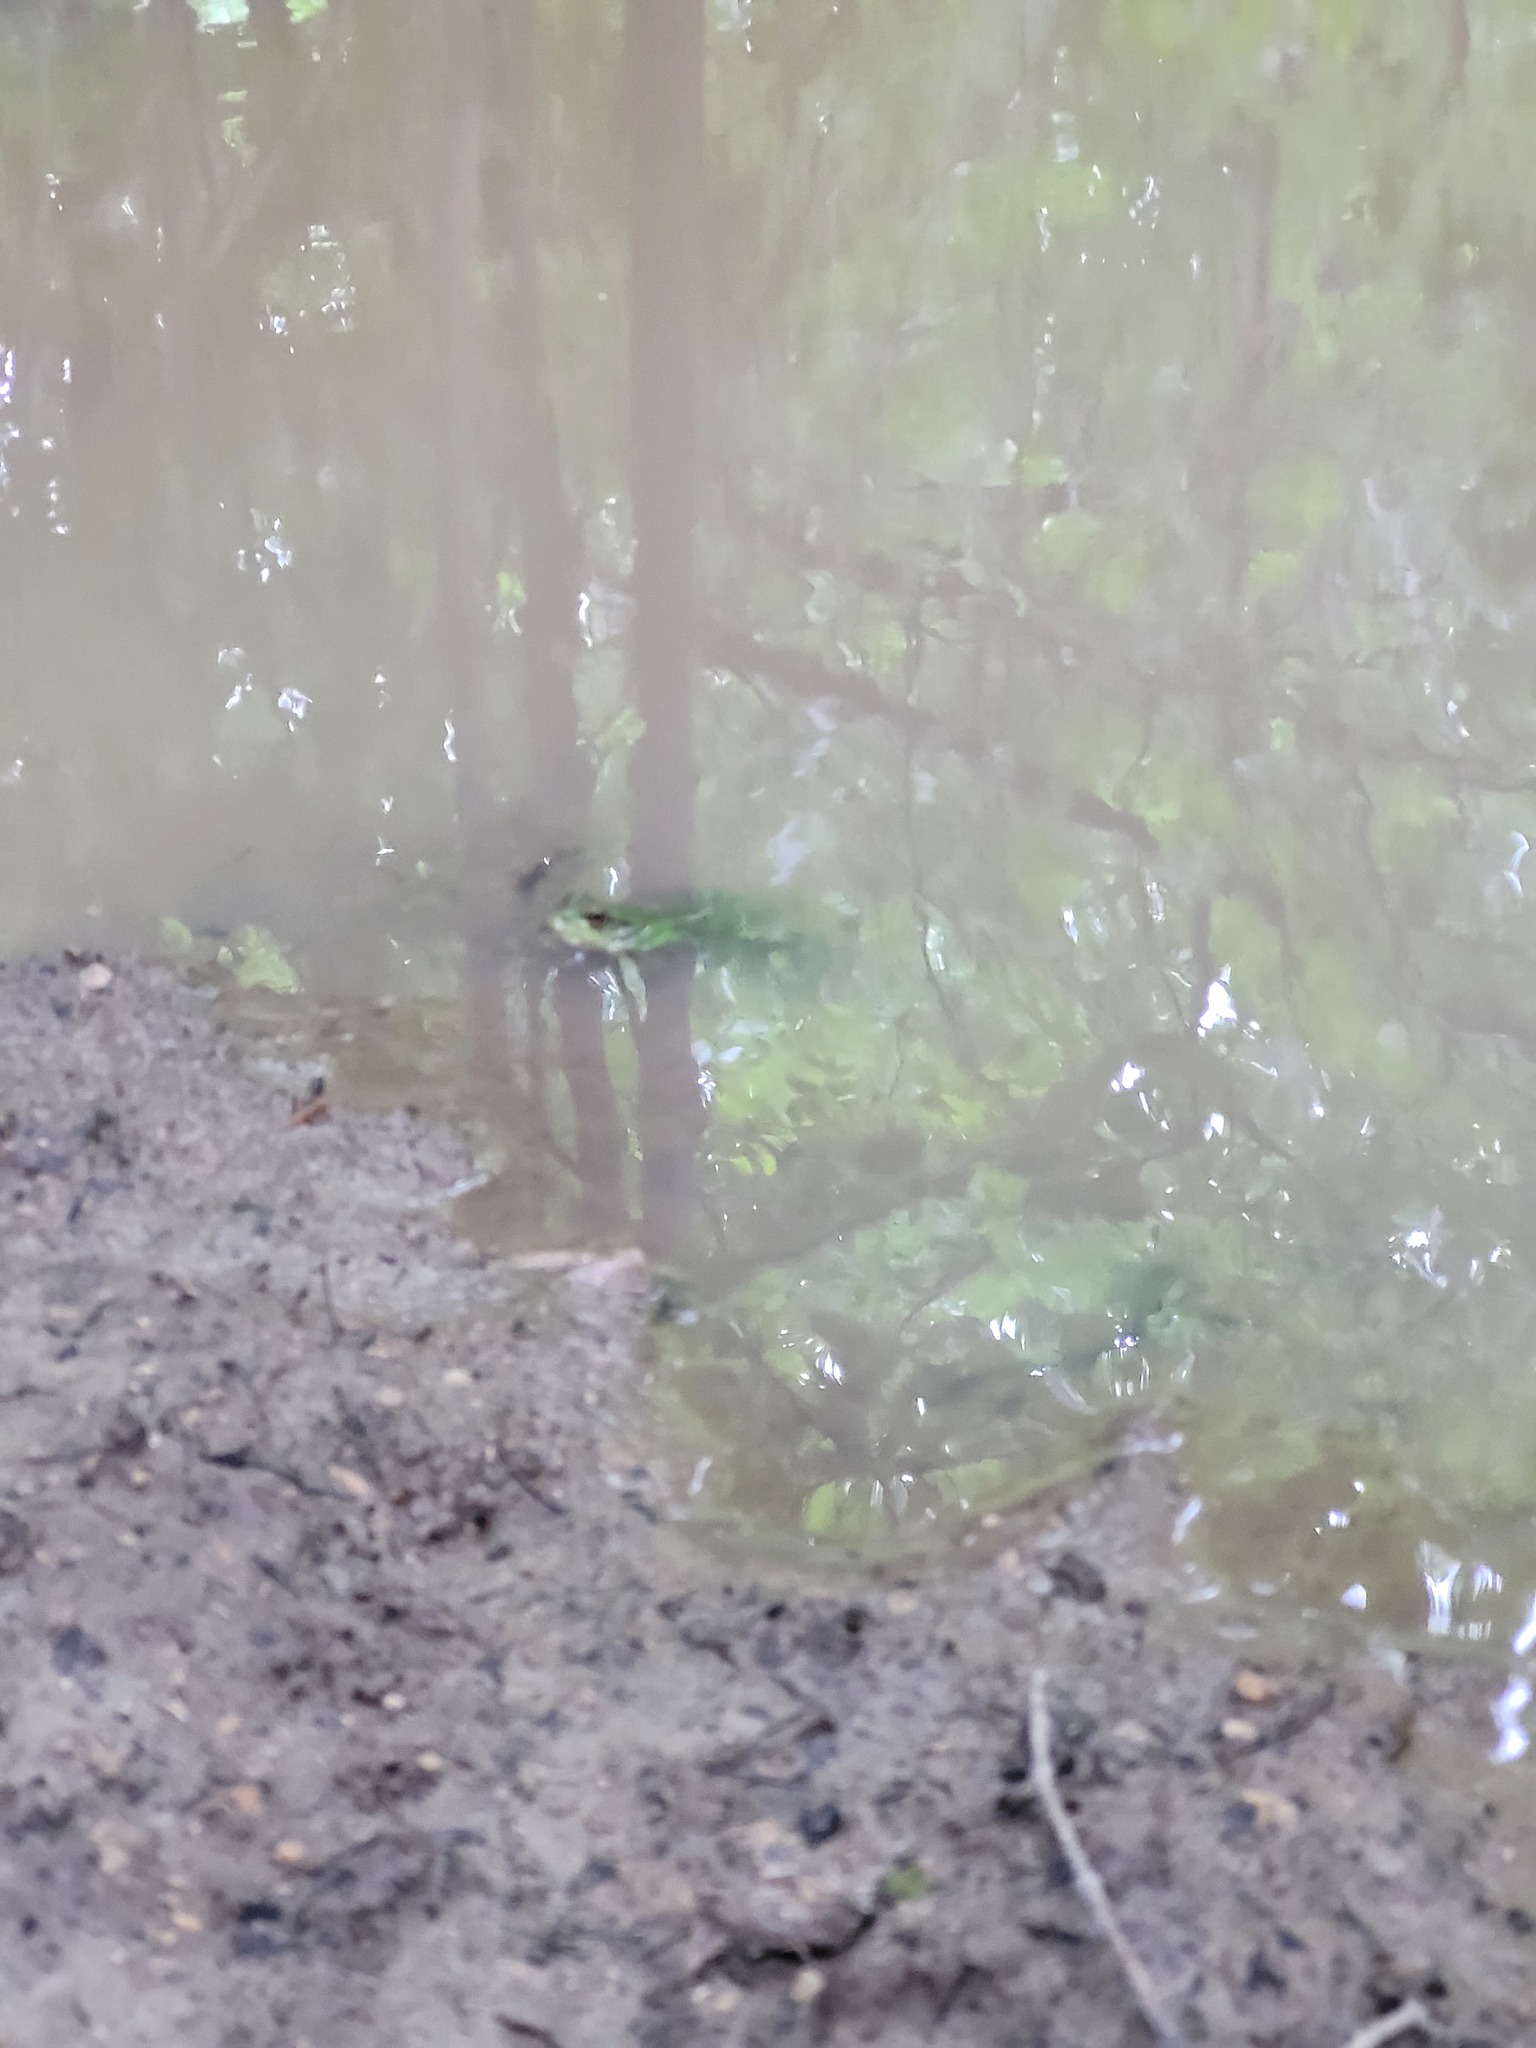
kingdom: Animalia
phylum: Chordata
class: Amphibia
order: Anura
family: Ranidae
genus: Lithobates
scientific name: Lithobates clamitans
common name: Green frog
